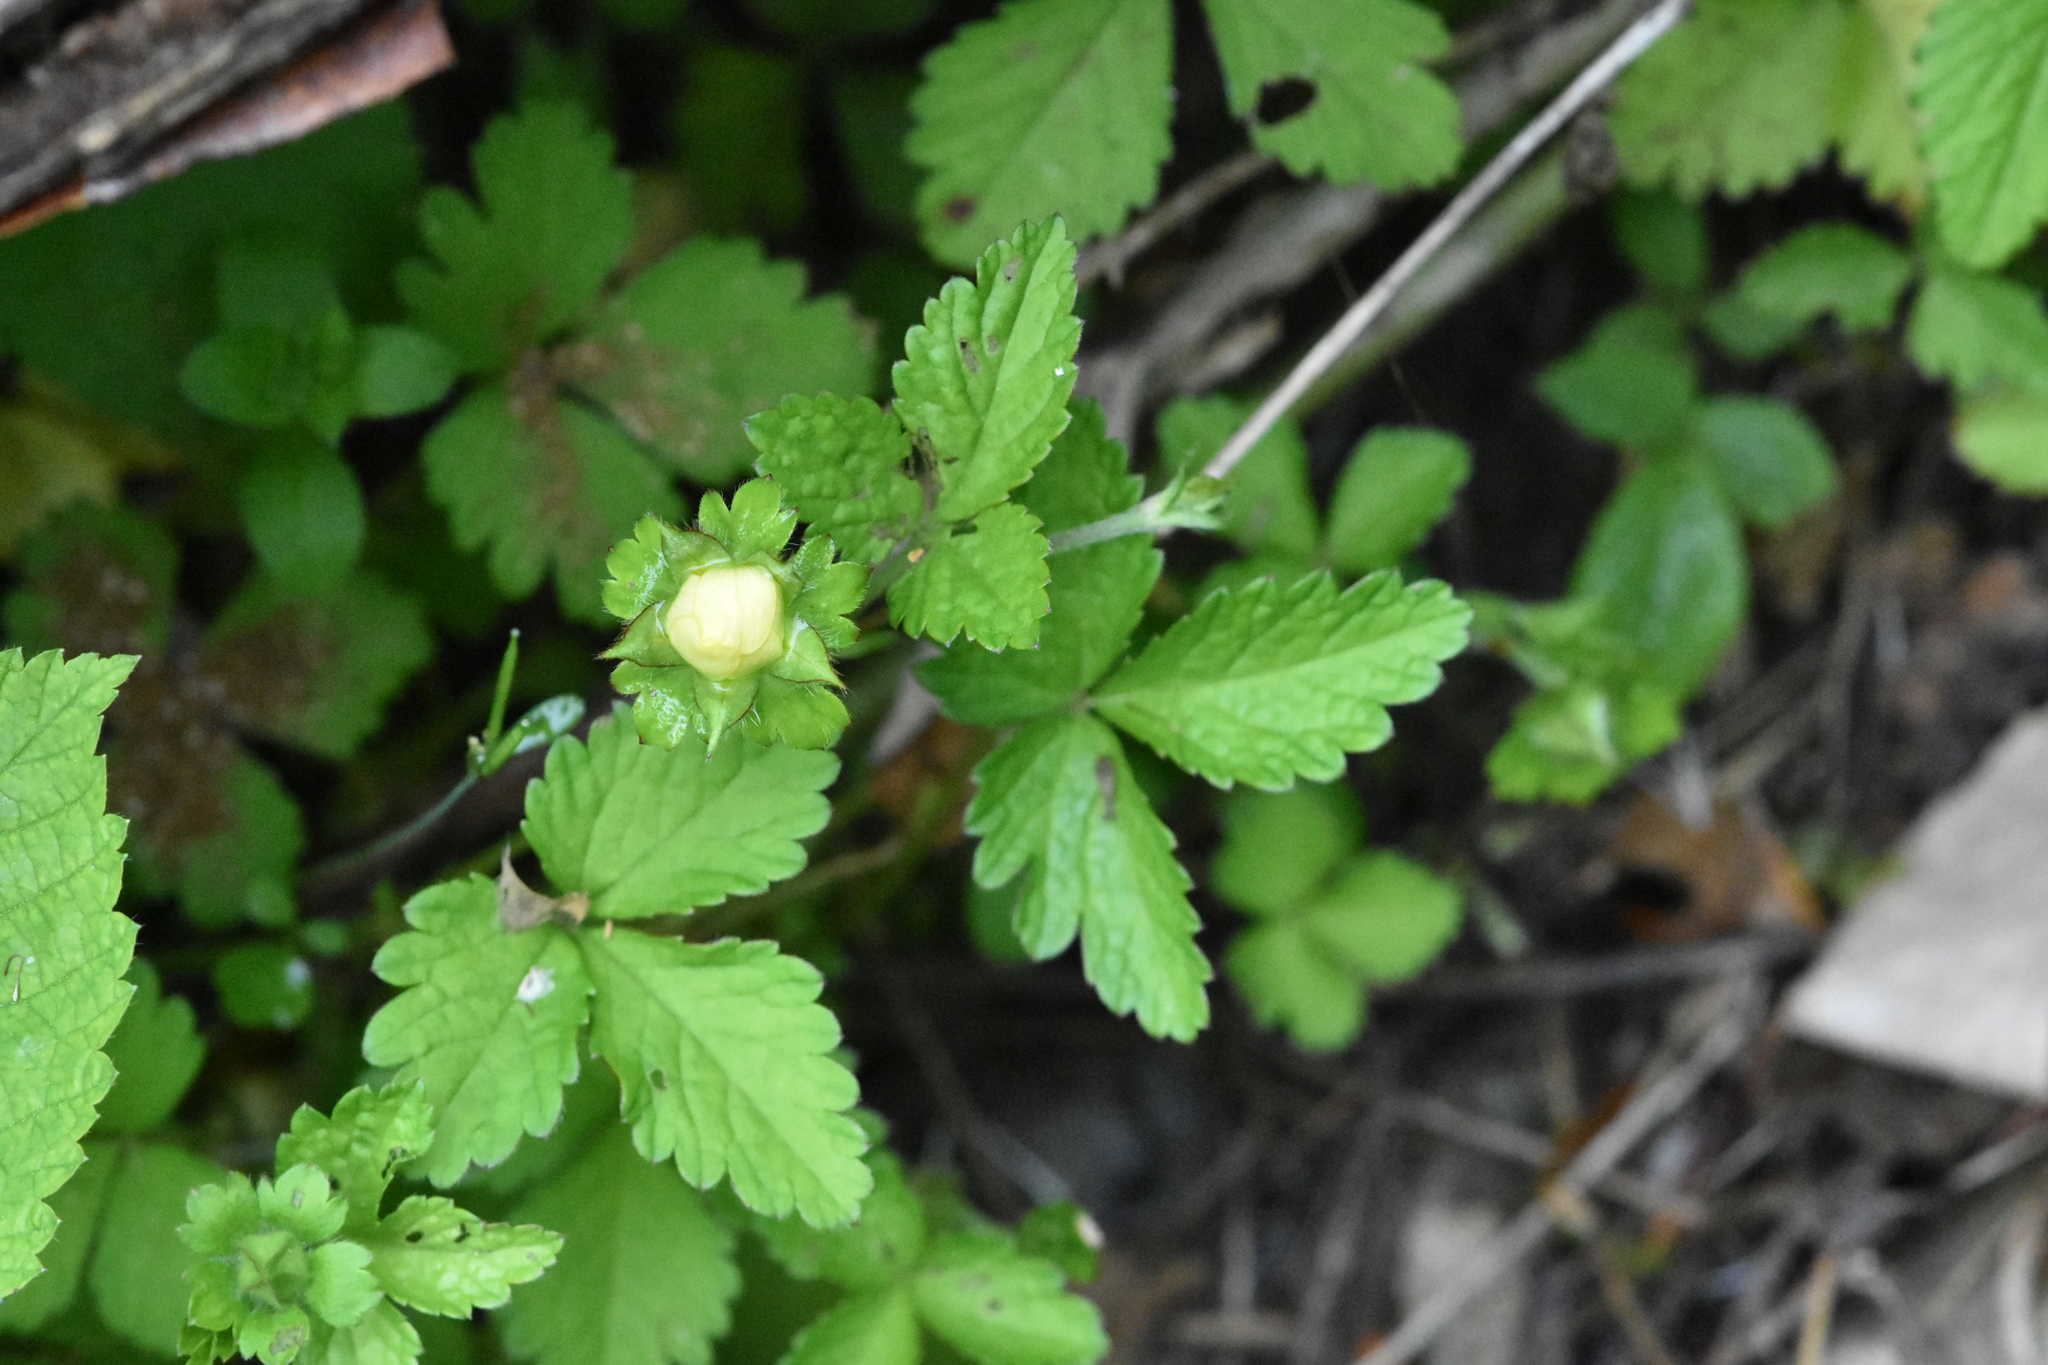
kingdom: Plantae
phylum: Tracheophyta
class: Magnoliopsida
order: Rosales
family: Rosaceae
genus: Potentilla
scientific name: Potentilla indica
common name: Yellow-flowered strawberry
